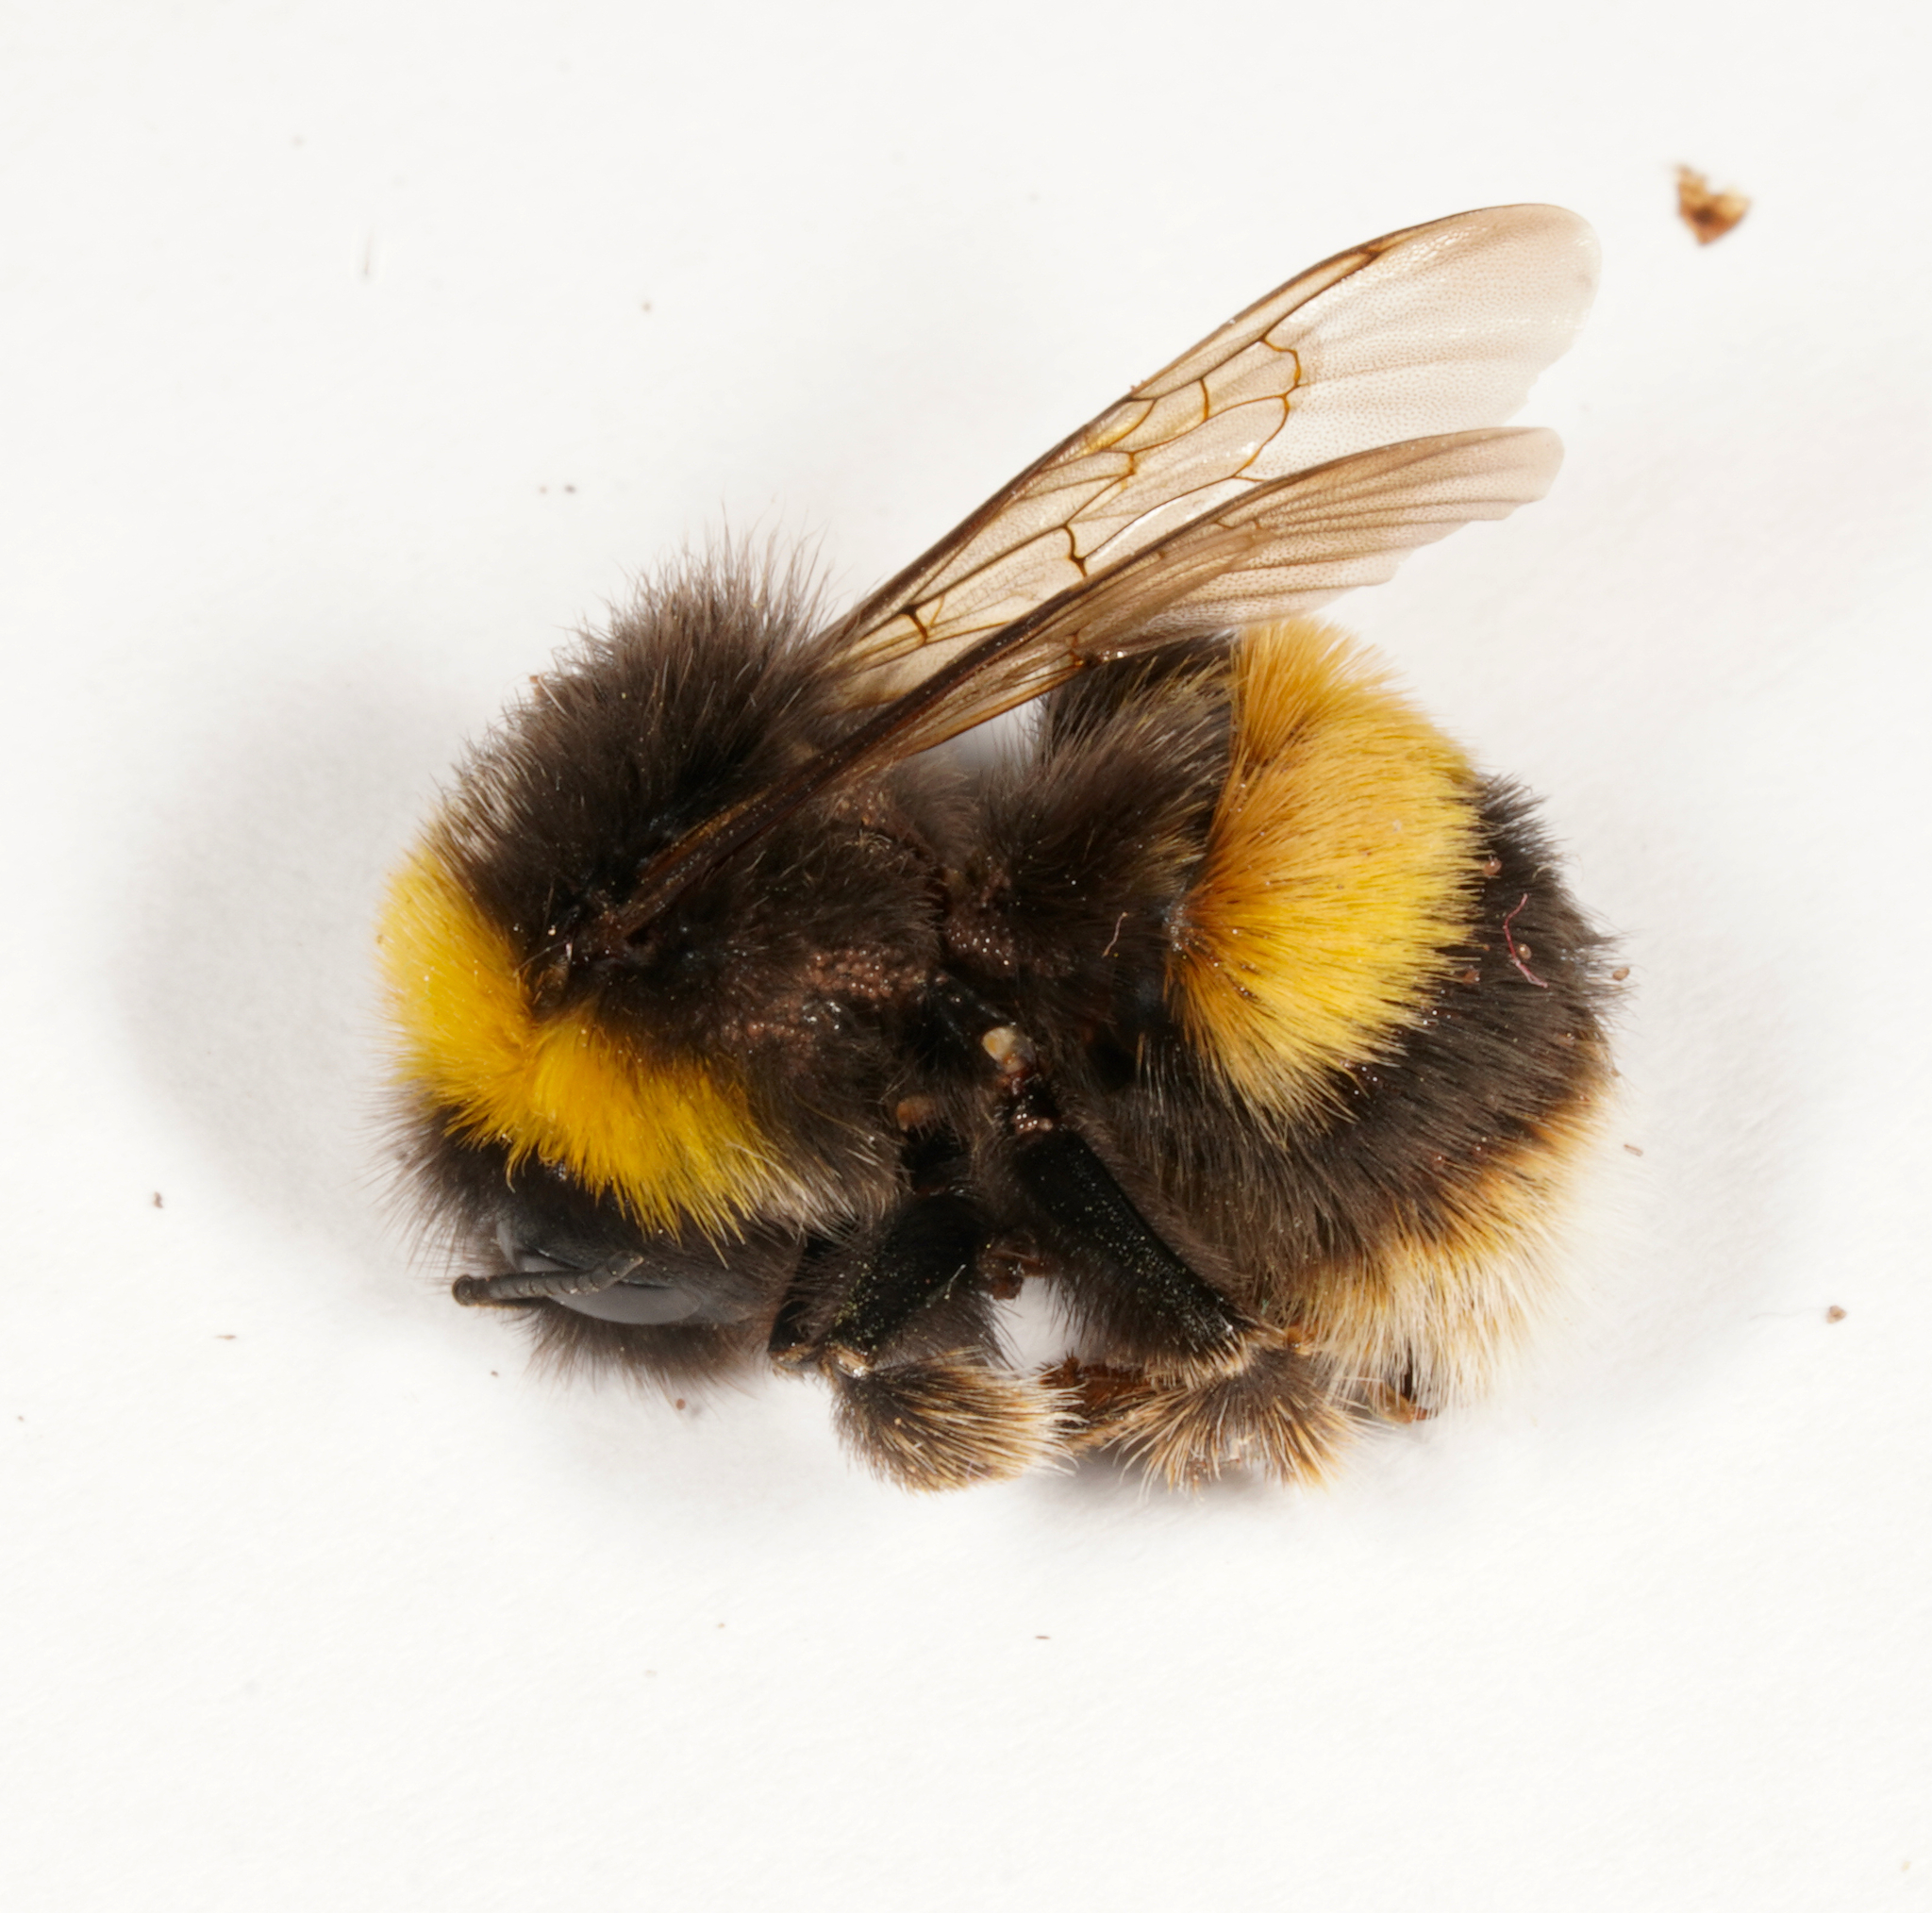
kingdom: Animalia
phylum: Arthropoda
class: Insecta
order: Hymenoptera
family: Apidae
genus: Bombus
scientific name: Bombus terrestris
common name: Buff-tailed bumblebee
